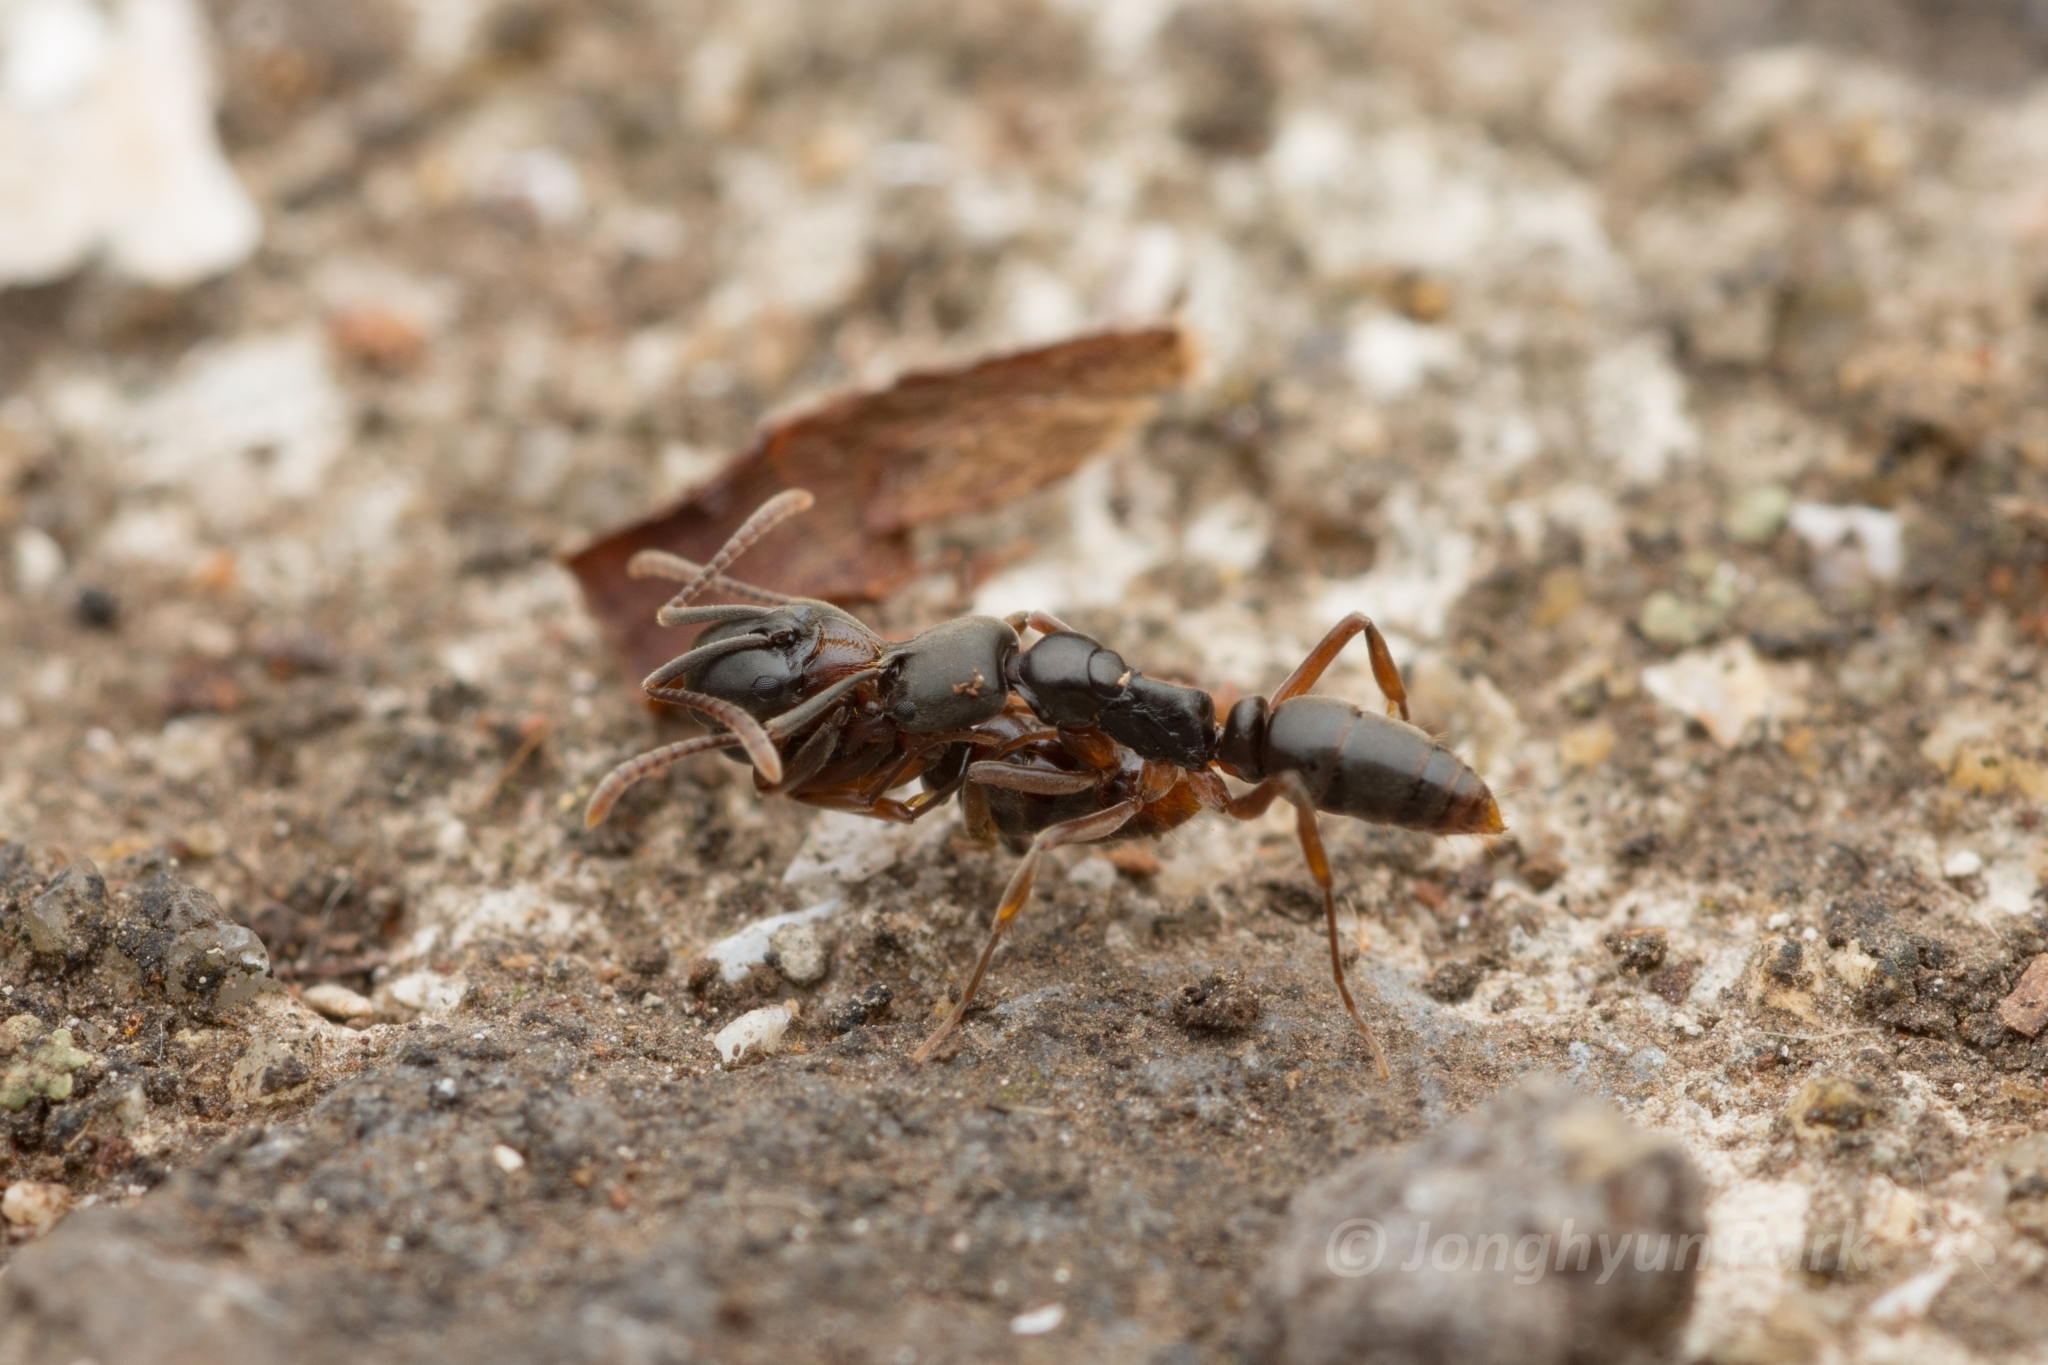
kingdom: Animalia
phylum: Arthropoda
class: Insecta
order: Hymenoptera
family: Formicidae
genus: Pachycondyla
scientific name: Pachycondyla chinensis
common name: Asian needle ant
